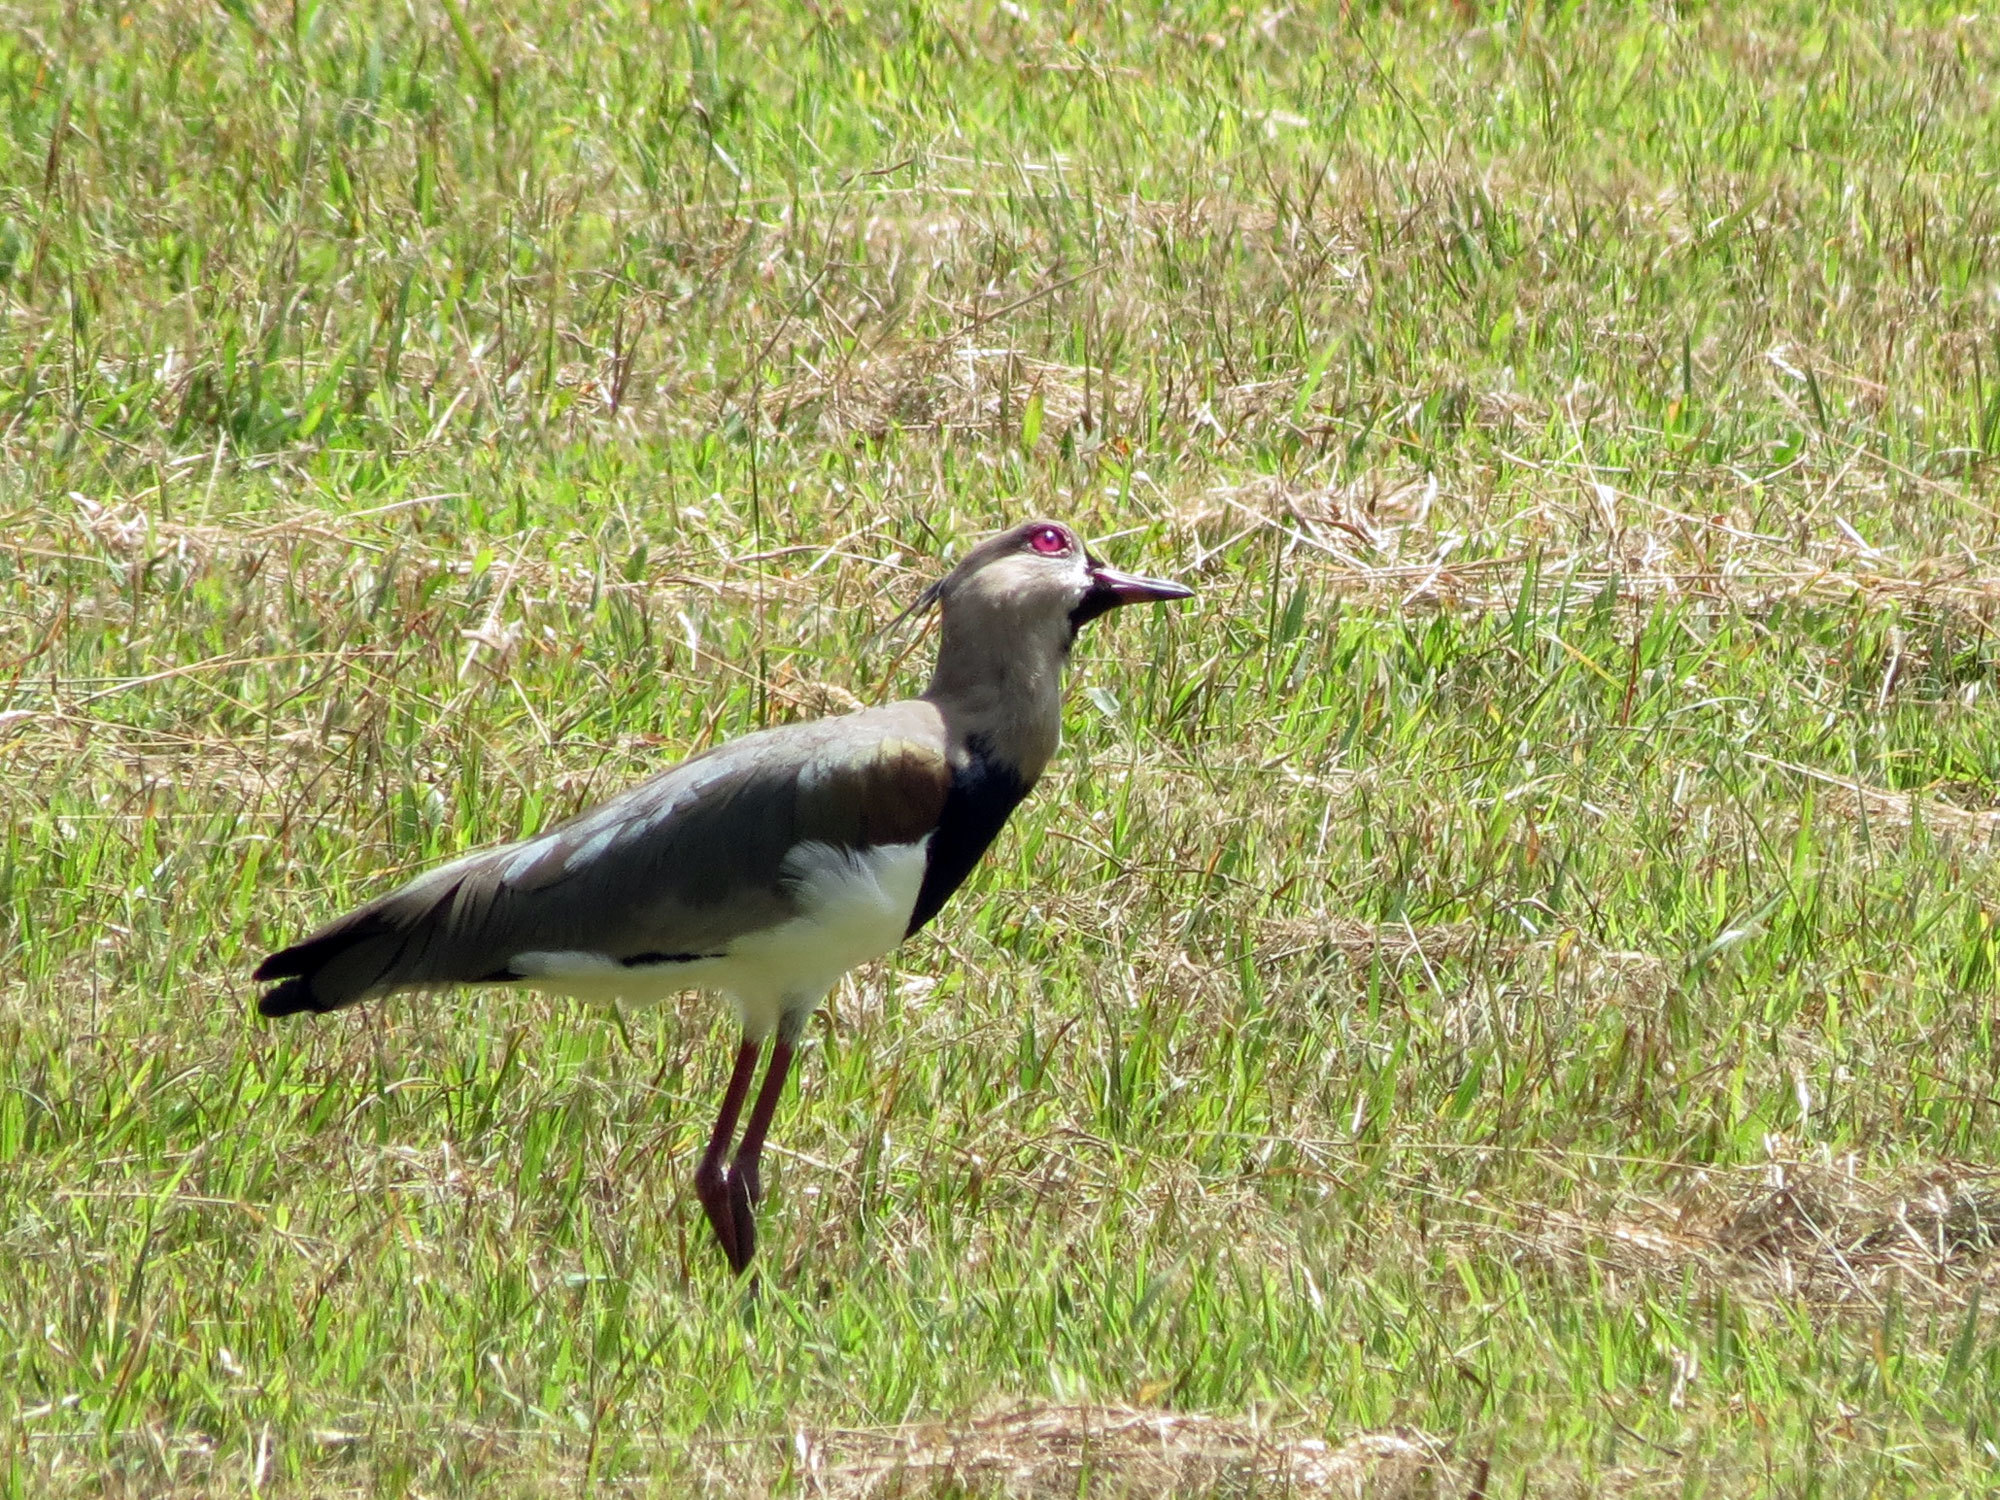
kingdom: Animalia
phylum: Chordata
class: Aves
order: Charadriiformes
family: Charadriidae
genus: Vanellus
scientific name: Vanellus chilensis
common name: Southern lapwing
